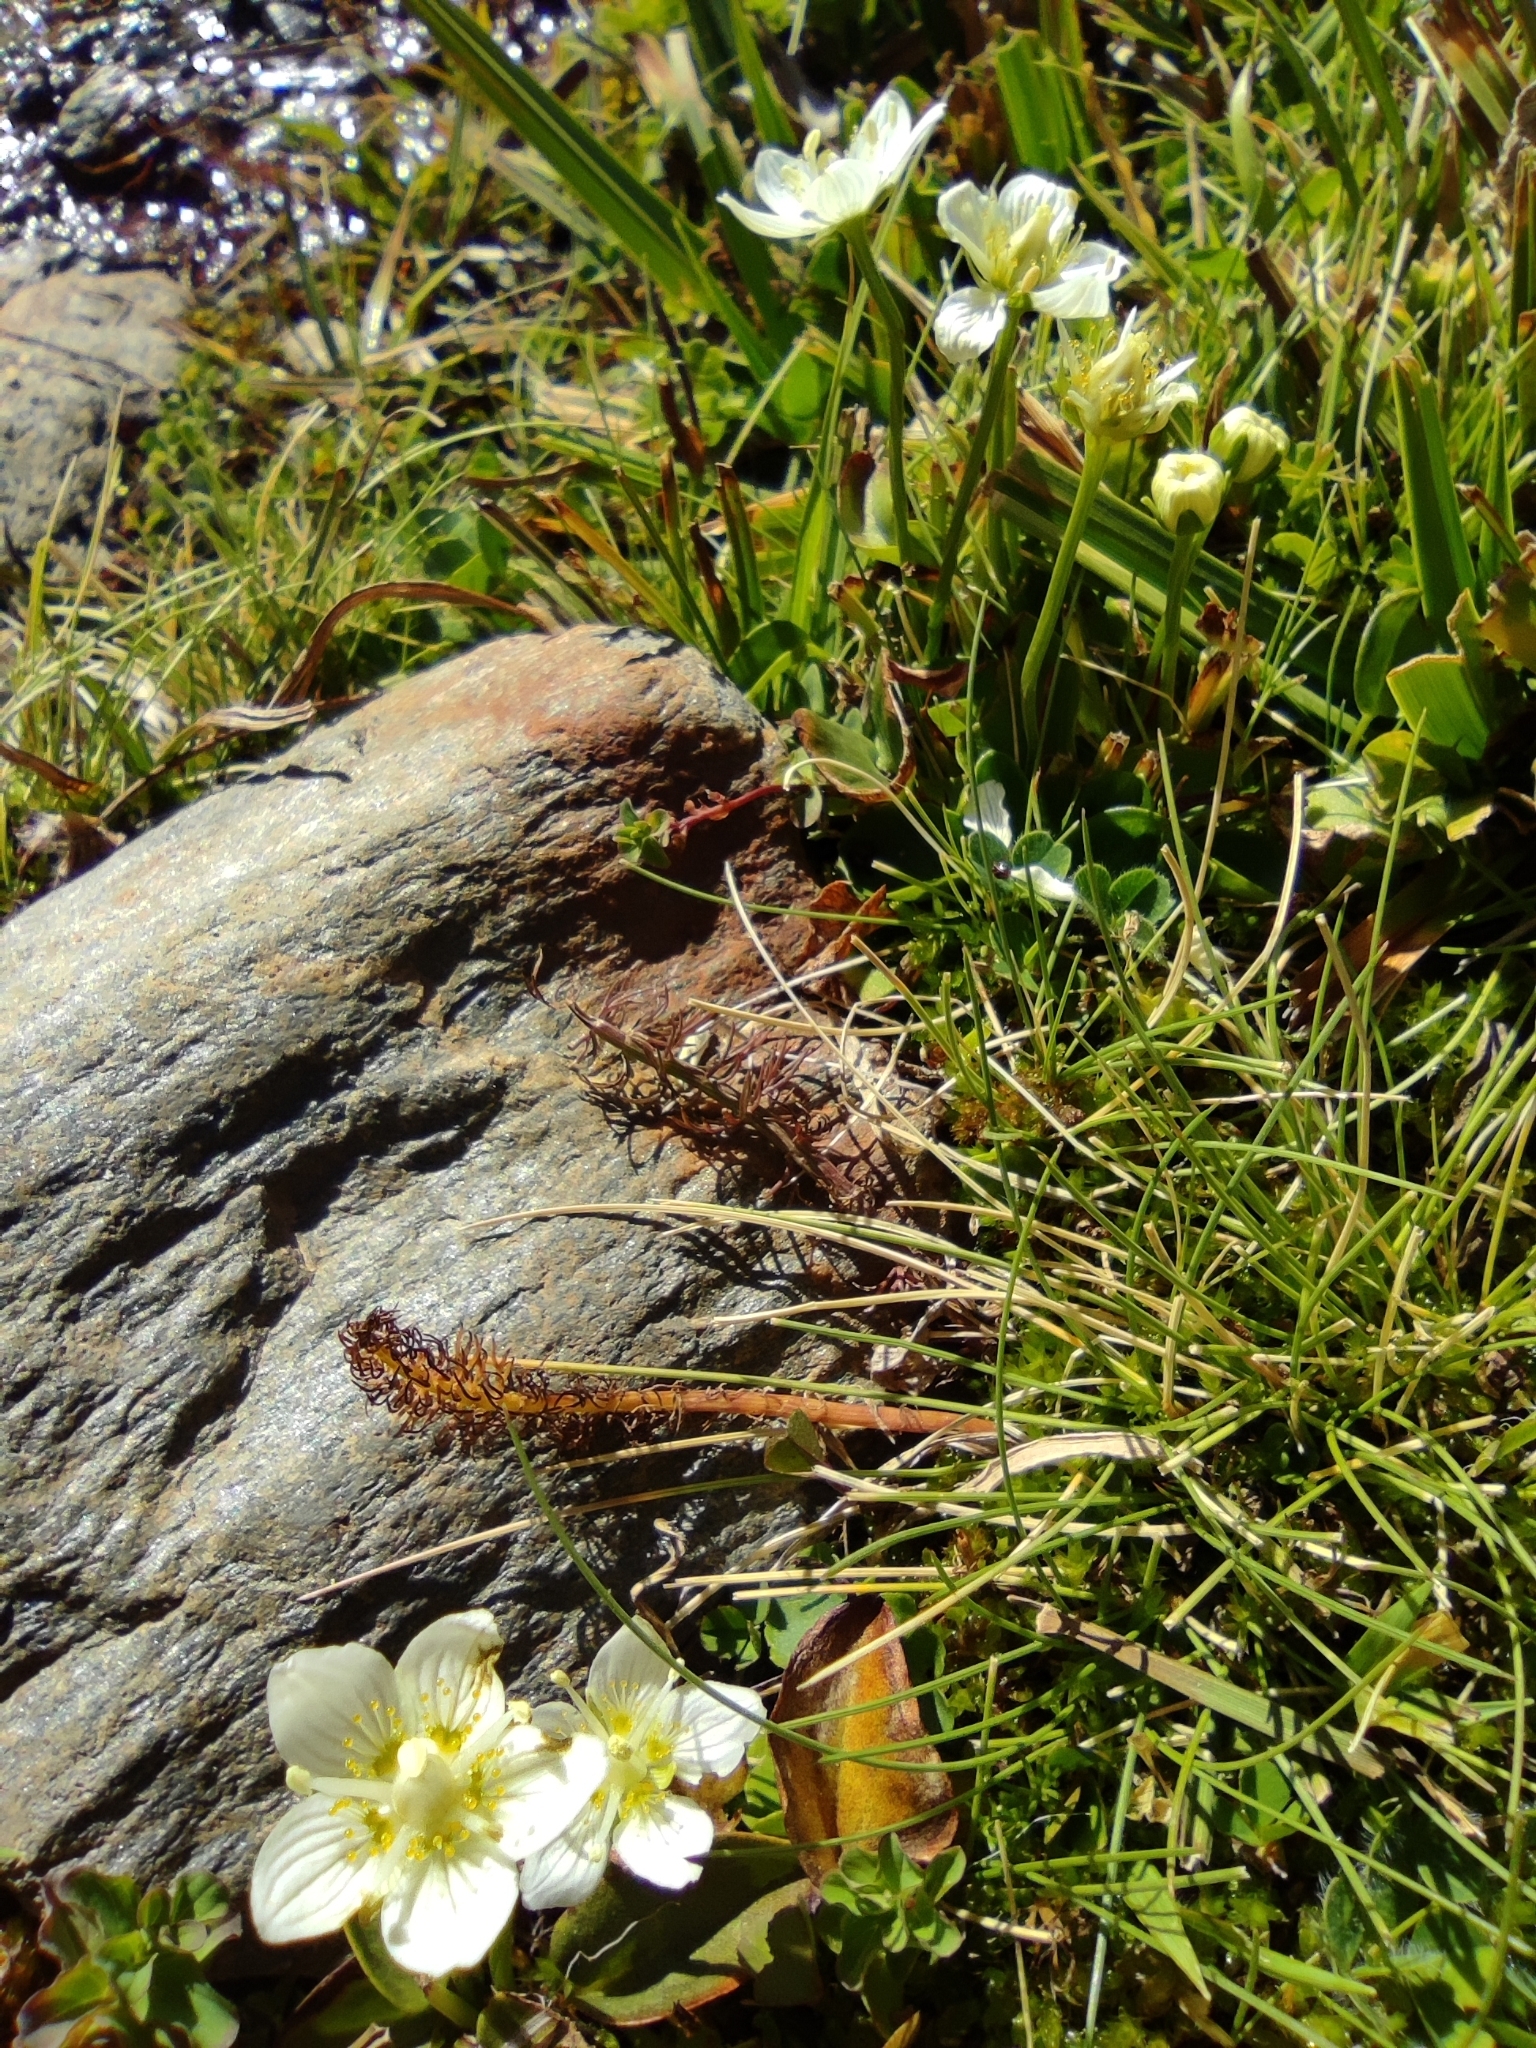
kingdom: Plantae
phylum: Tracheophyta
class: Magnoliopsida
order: Celastrales
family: Parnassiaceae
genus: Parnassia
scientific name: Parnassia palustris
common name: Grass-of-parnassus
